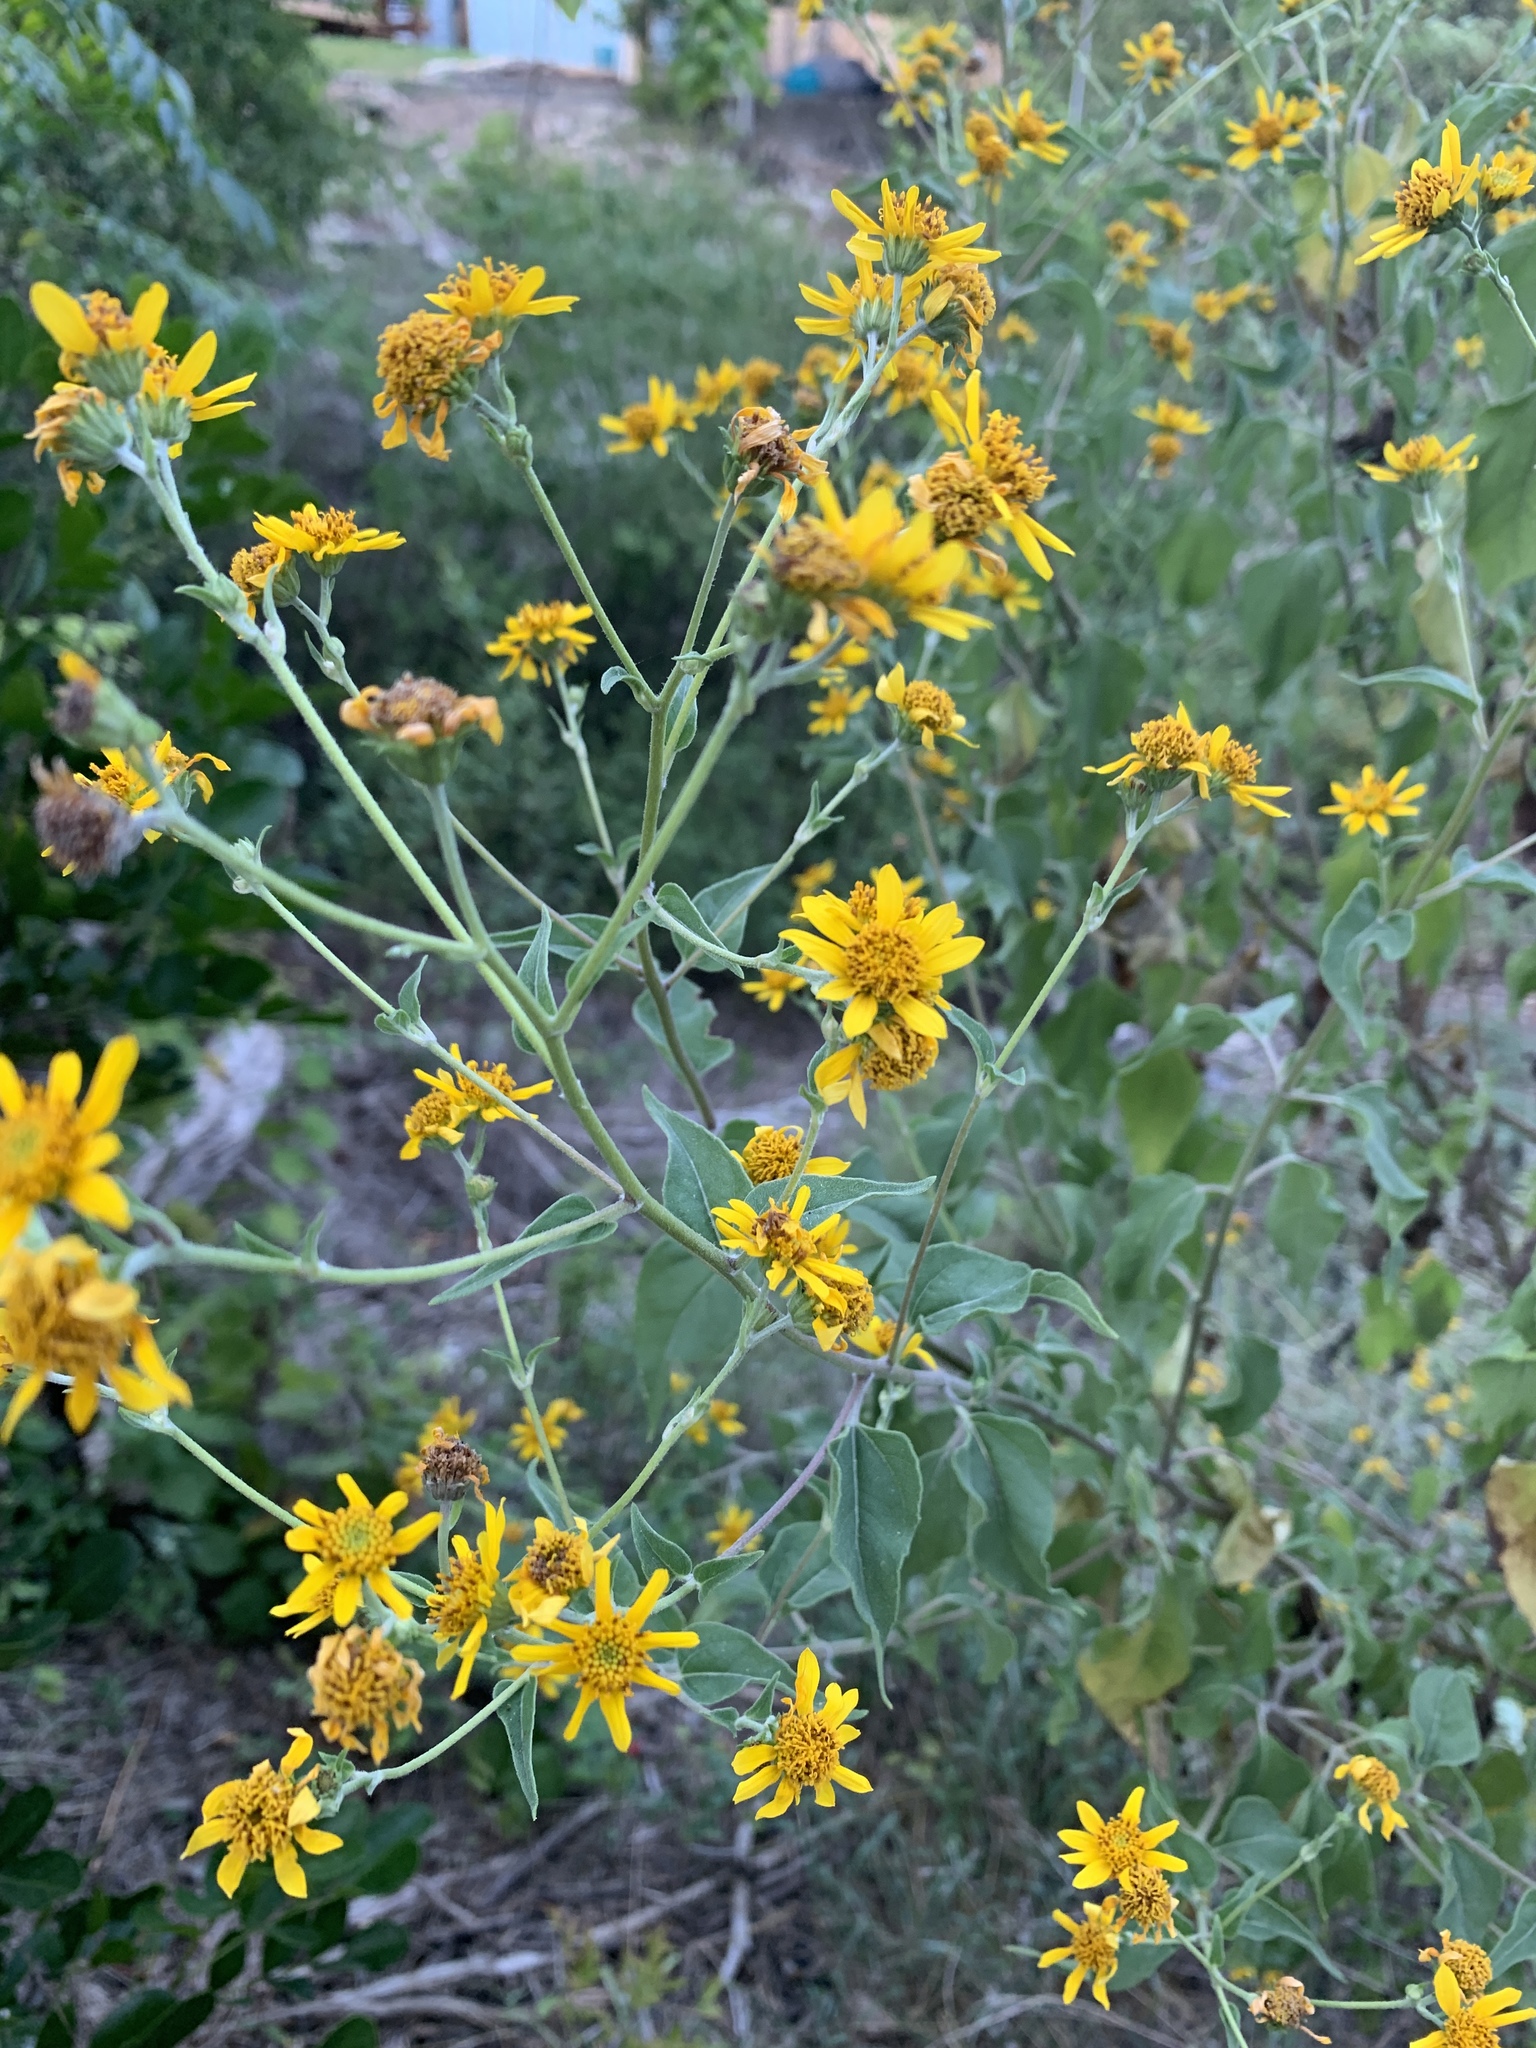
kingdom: Plantae
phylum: Tracheophyta
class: Magnoliopsida
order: Asterales
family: Asteraceae
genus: Viguiera
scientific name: Viguiera dentata
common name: Toothleaf
